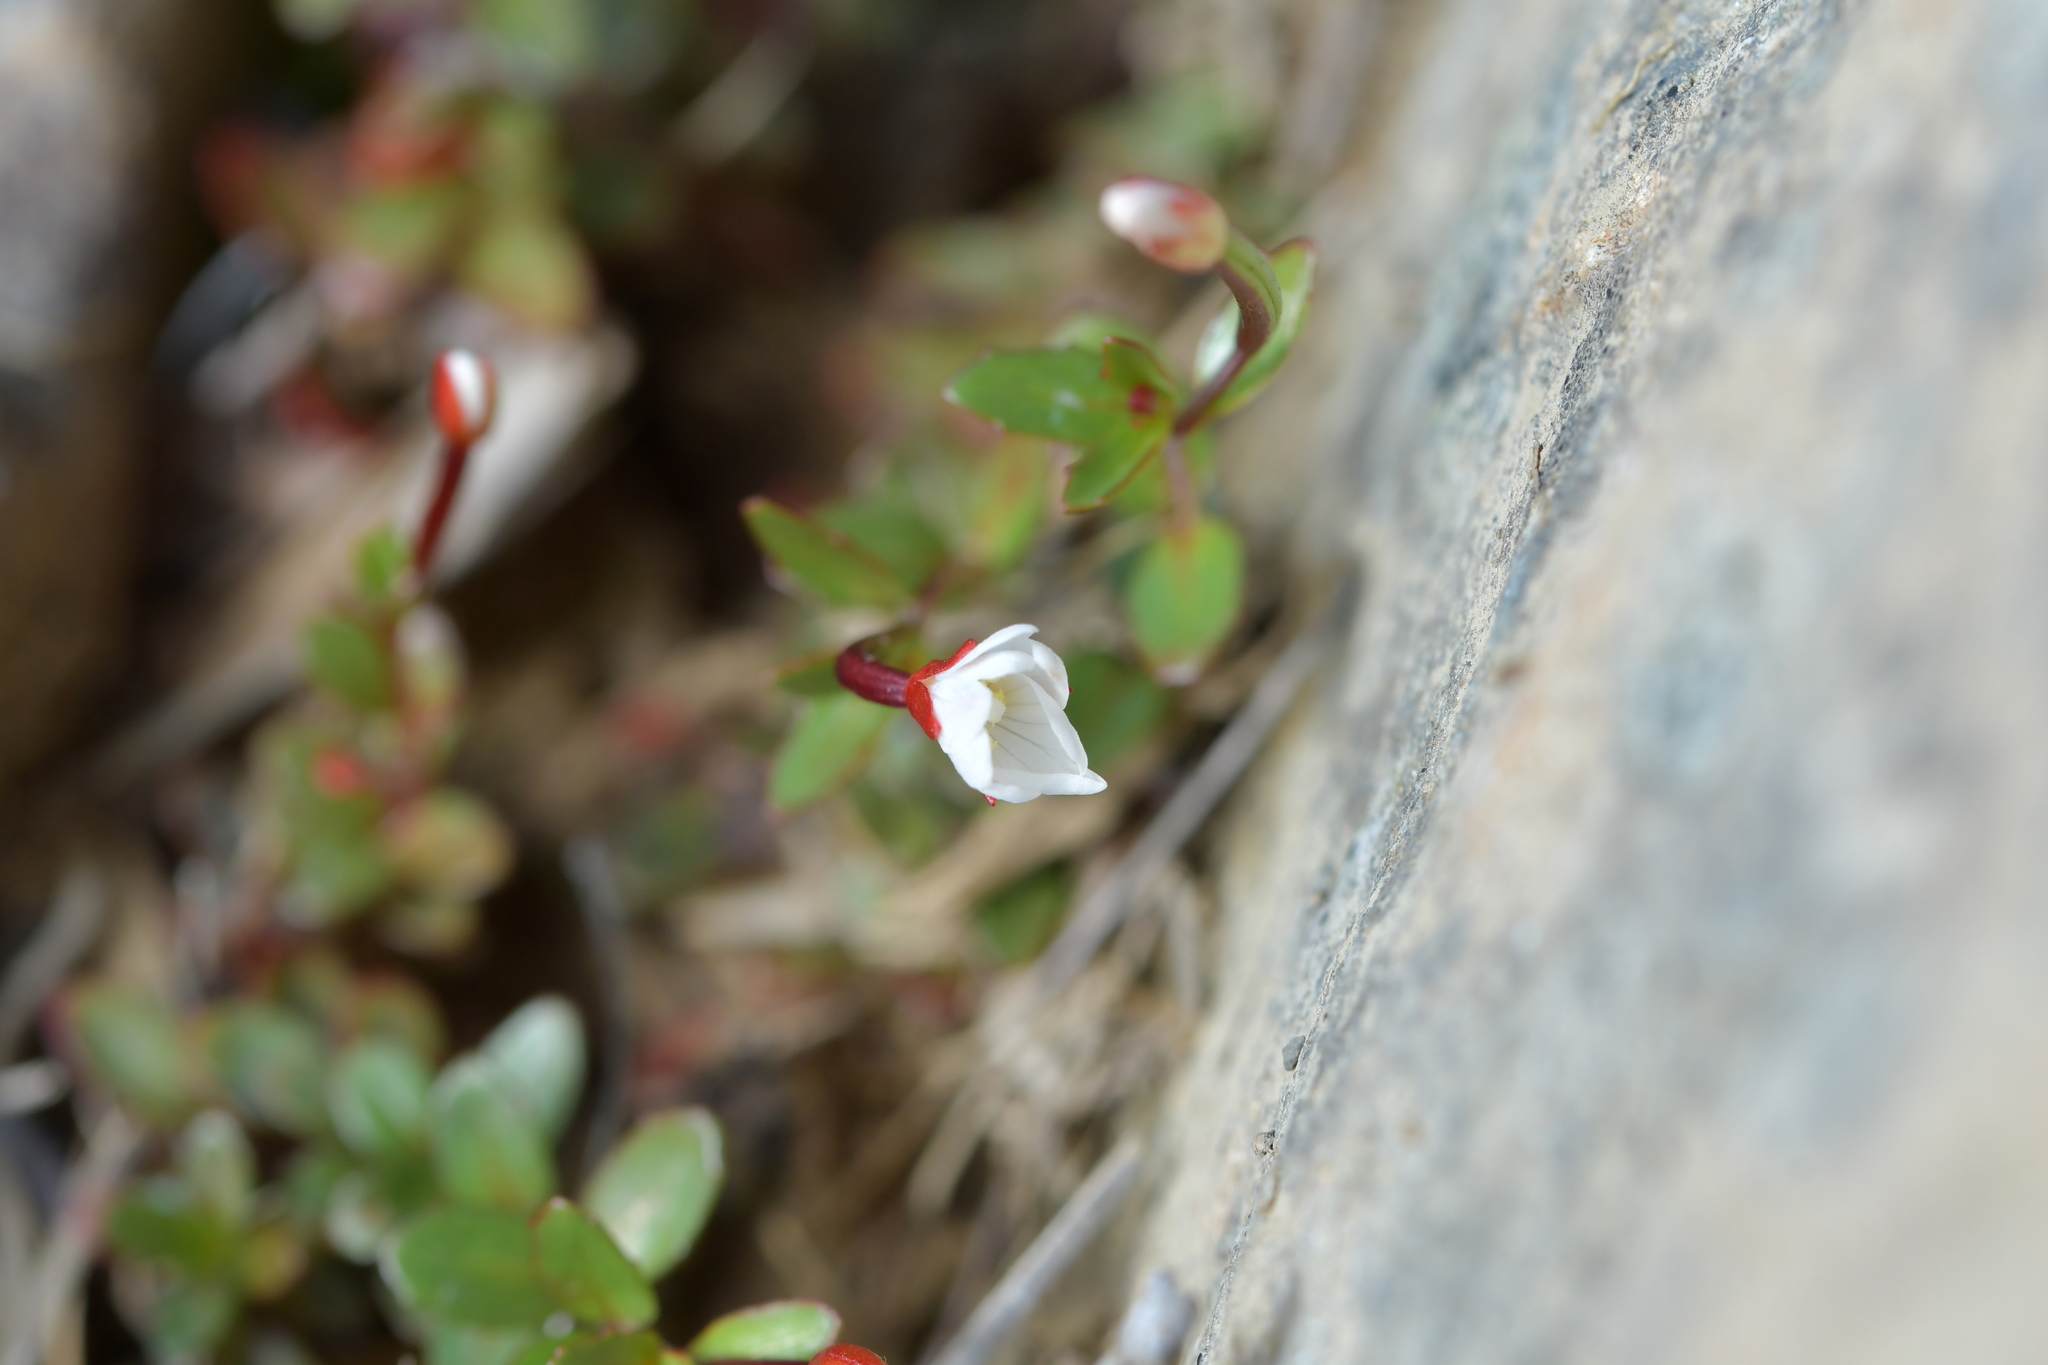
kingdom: Plantae
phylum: Tracheophyta
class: Magnoliopsida
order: Myrtales
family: Onagraceae
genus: Epilobium
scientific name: Epilobium alsinoides
